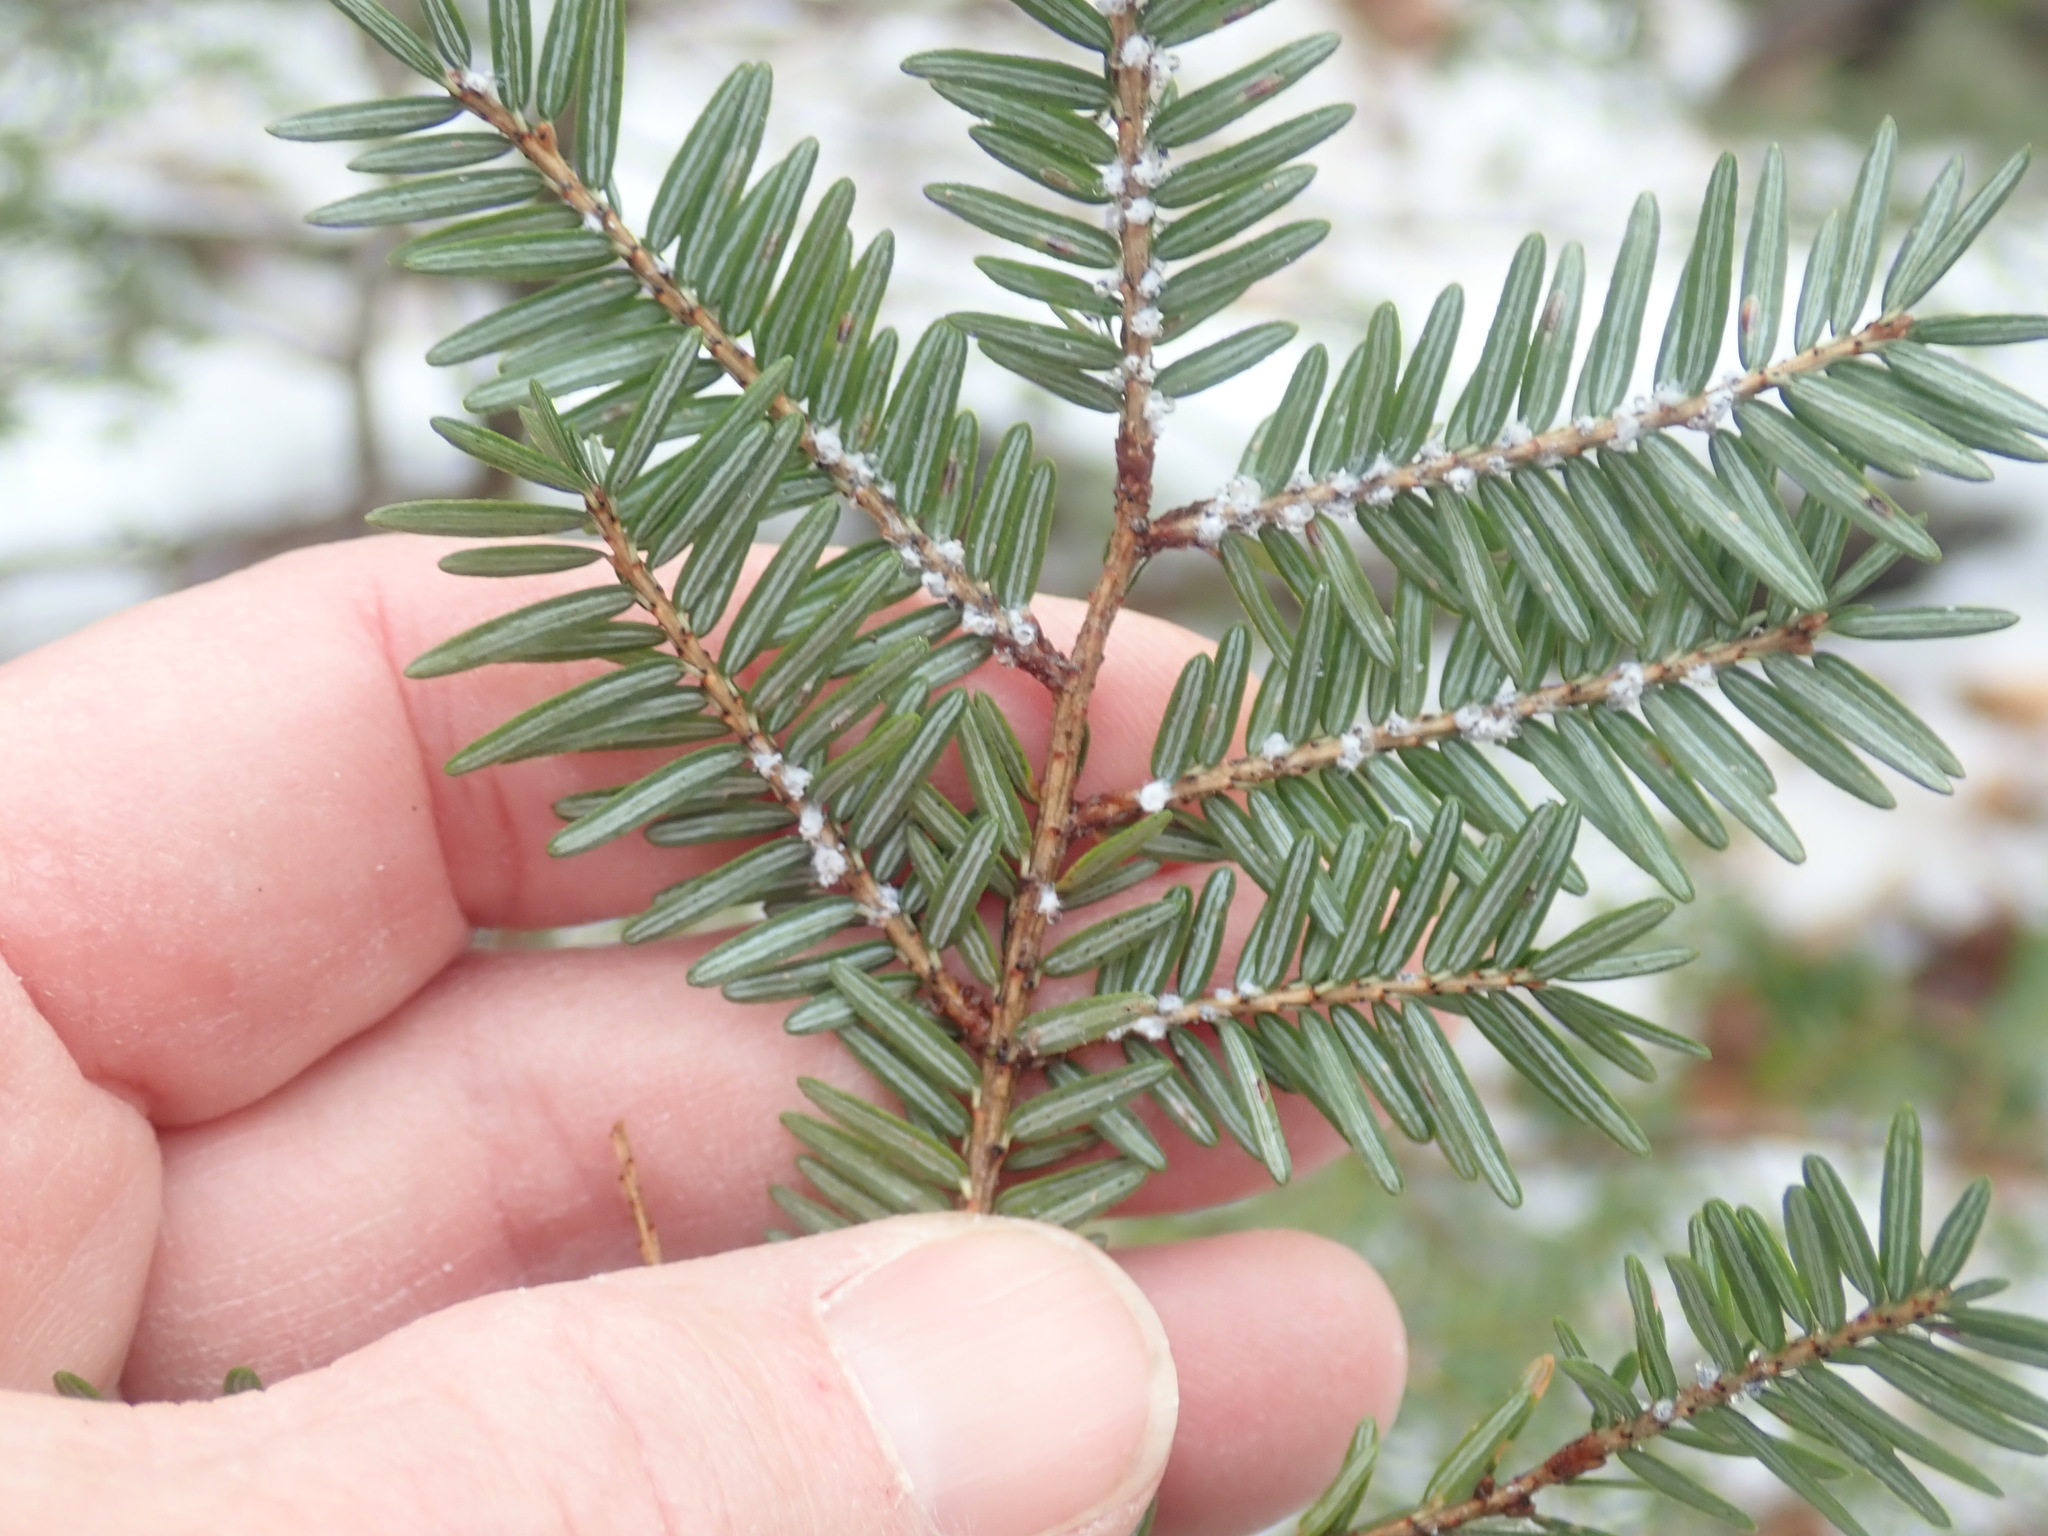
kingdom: Animalia
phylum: Arthropoda
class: Insecta
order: Hemiptera
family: Adelgidae
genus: Adelges
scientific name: Adelges tsugae
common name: Hemlock woolly adelgid
